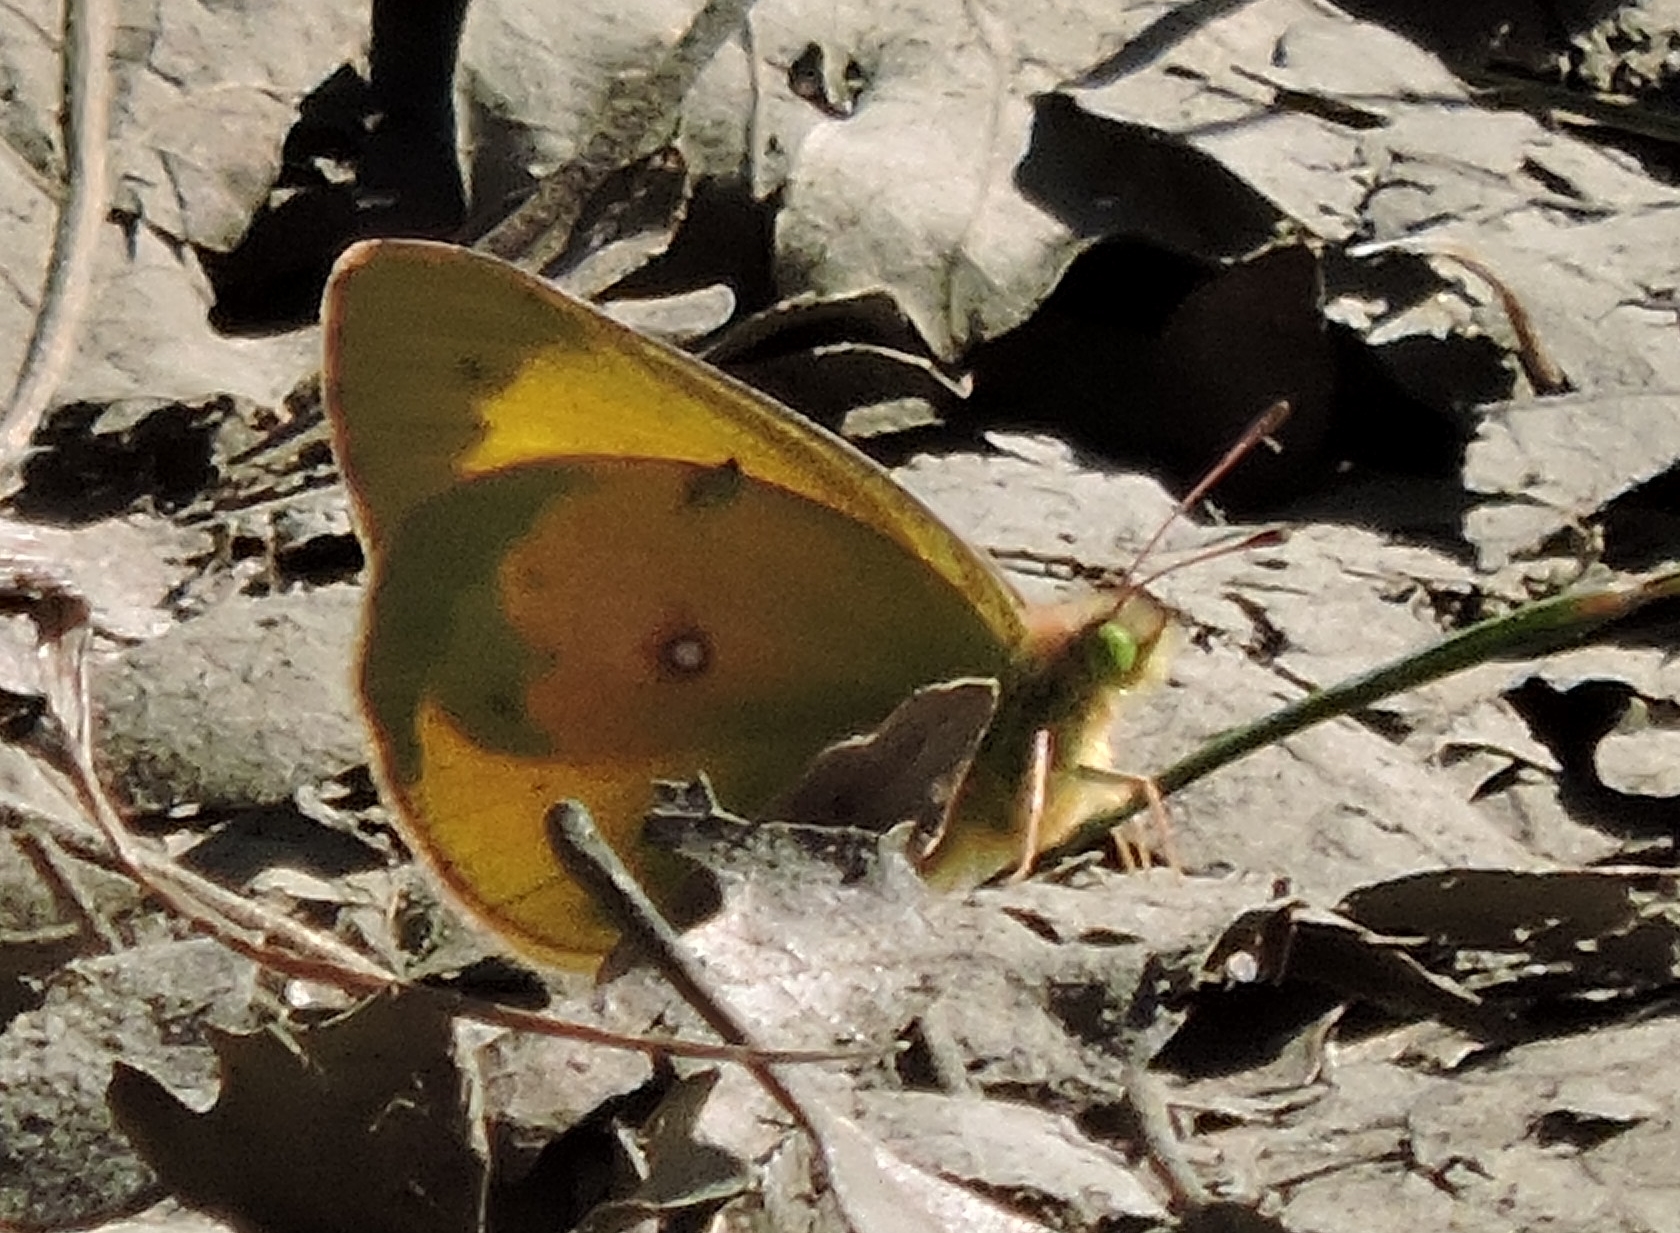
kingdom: Animalia
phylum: Arthropoda
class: Insecta
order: Lepidoptera
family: Pieridae
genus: Colias
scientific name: Colias eurytheme
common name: Alfalfa butterfly
